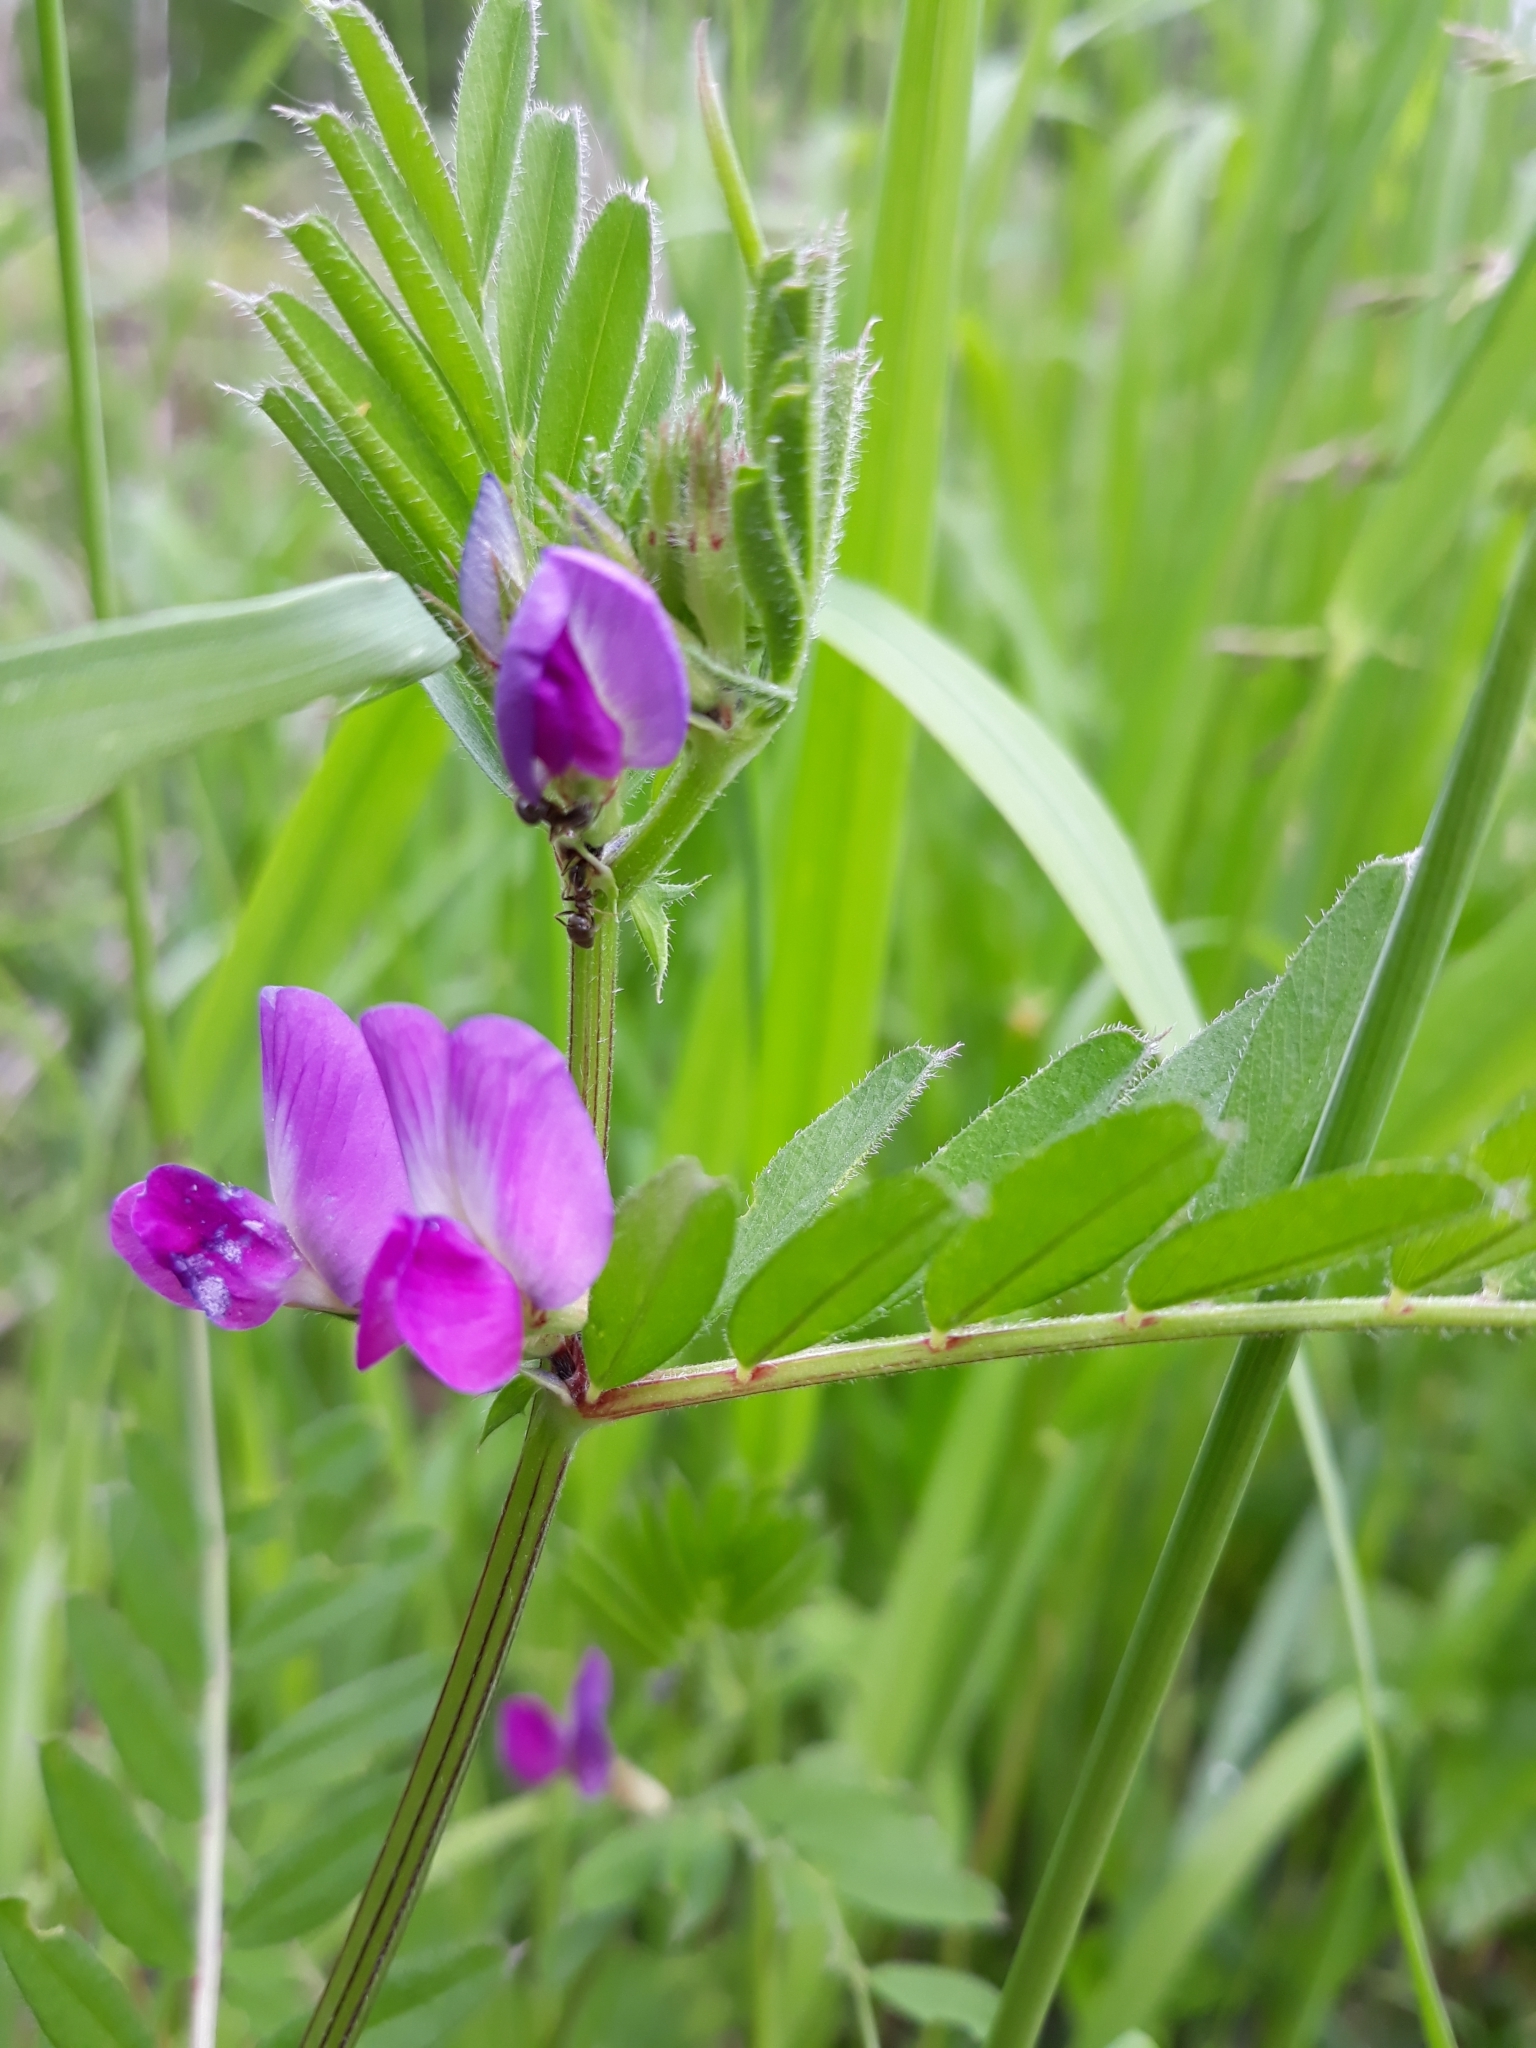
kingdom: Plantae
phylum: Tracheophyta
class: Magnoliopsida
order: Fabales
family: Fabaceae
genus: Vicia
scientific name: Vicia sepium
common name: Bush vetch
